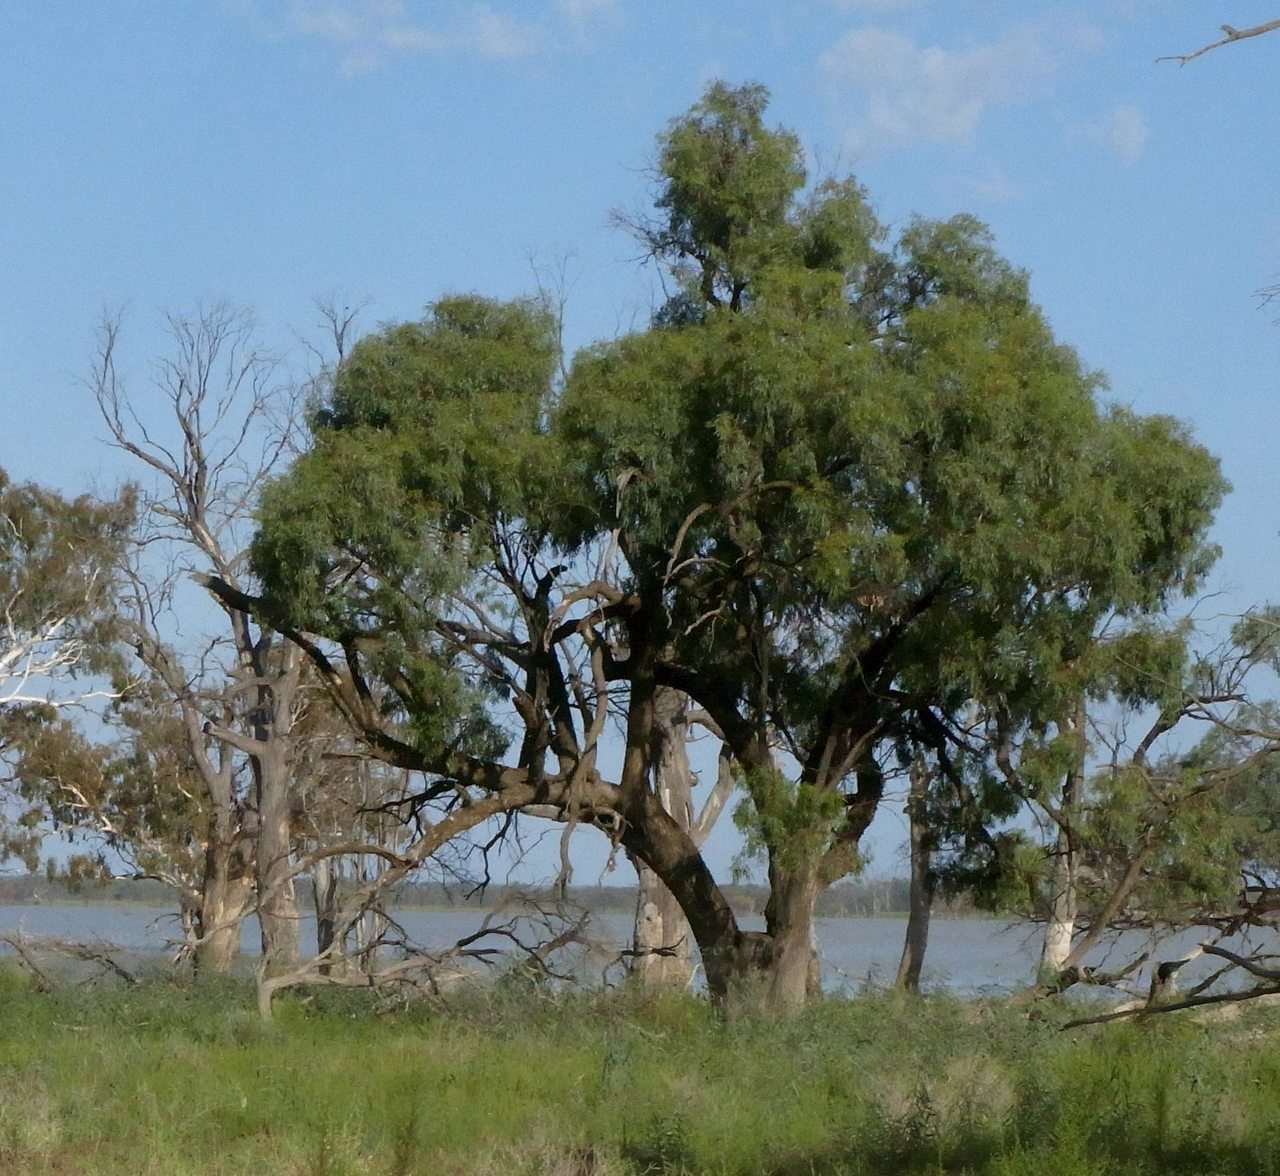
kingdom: Plantae
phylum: Tracheophyta
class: Magnoliopsida
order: Myrtales
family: Myrtaceae
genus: Eucalyptus
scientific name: Eucalyptus largiflorens
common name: Black-box
